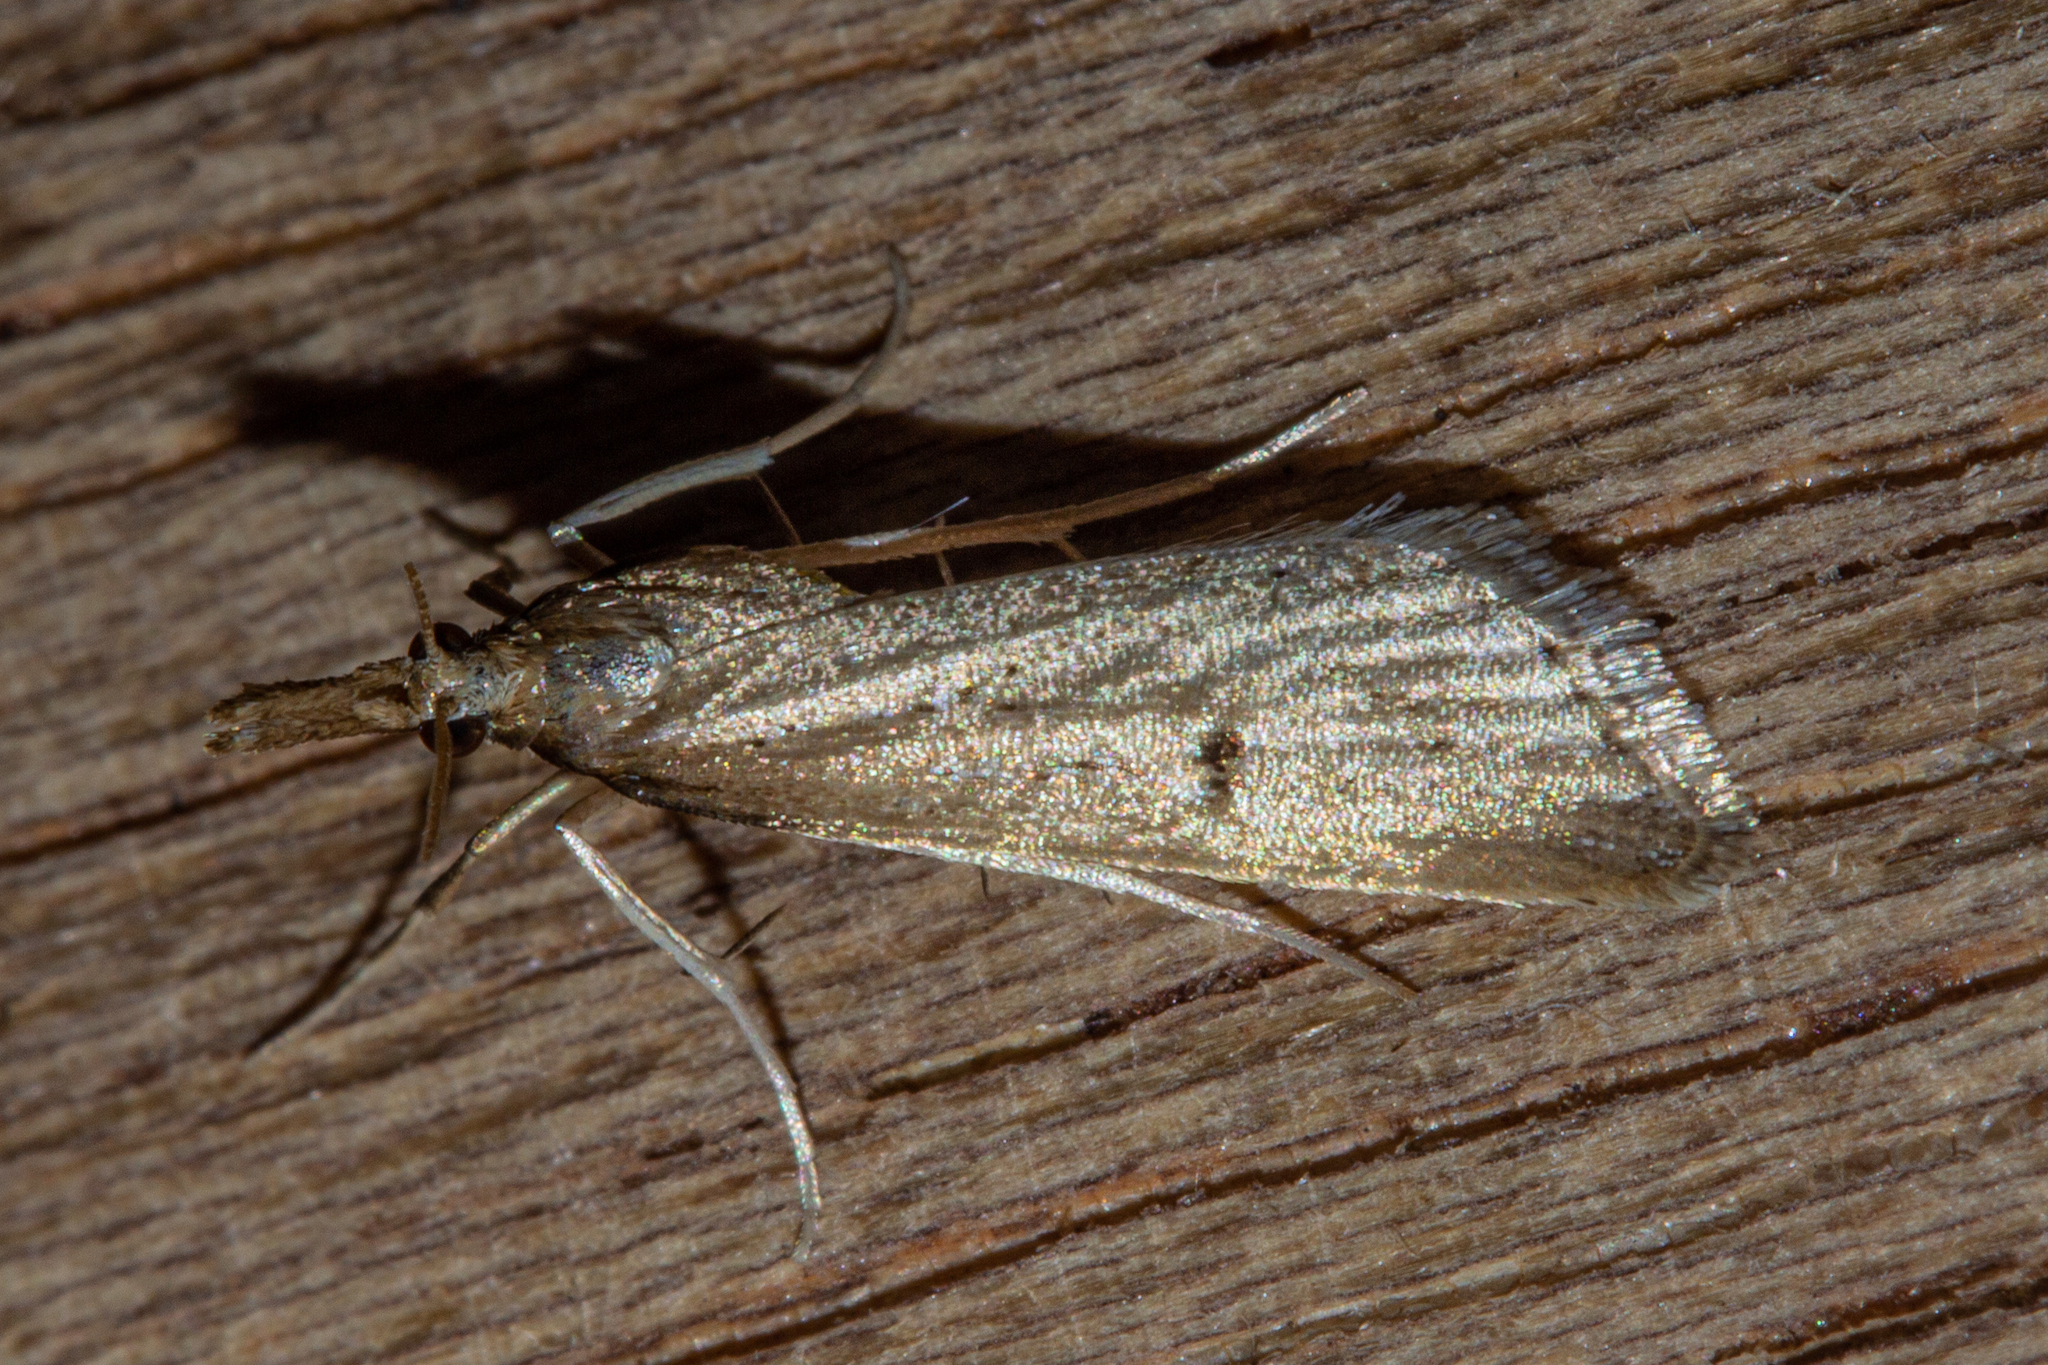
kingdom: Animalia
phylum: Arthropoda
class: Insecta
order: Lepidoptera
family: Crambidae
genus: Antiscopa
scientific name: Antiscopa elaphra
